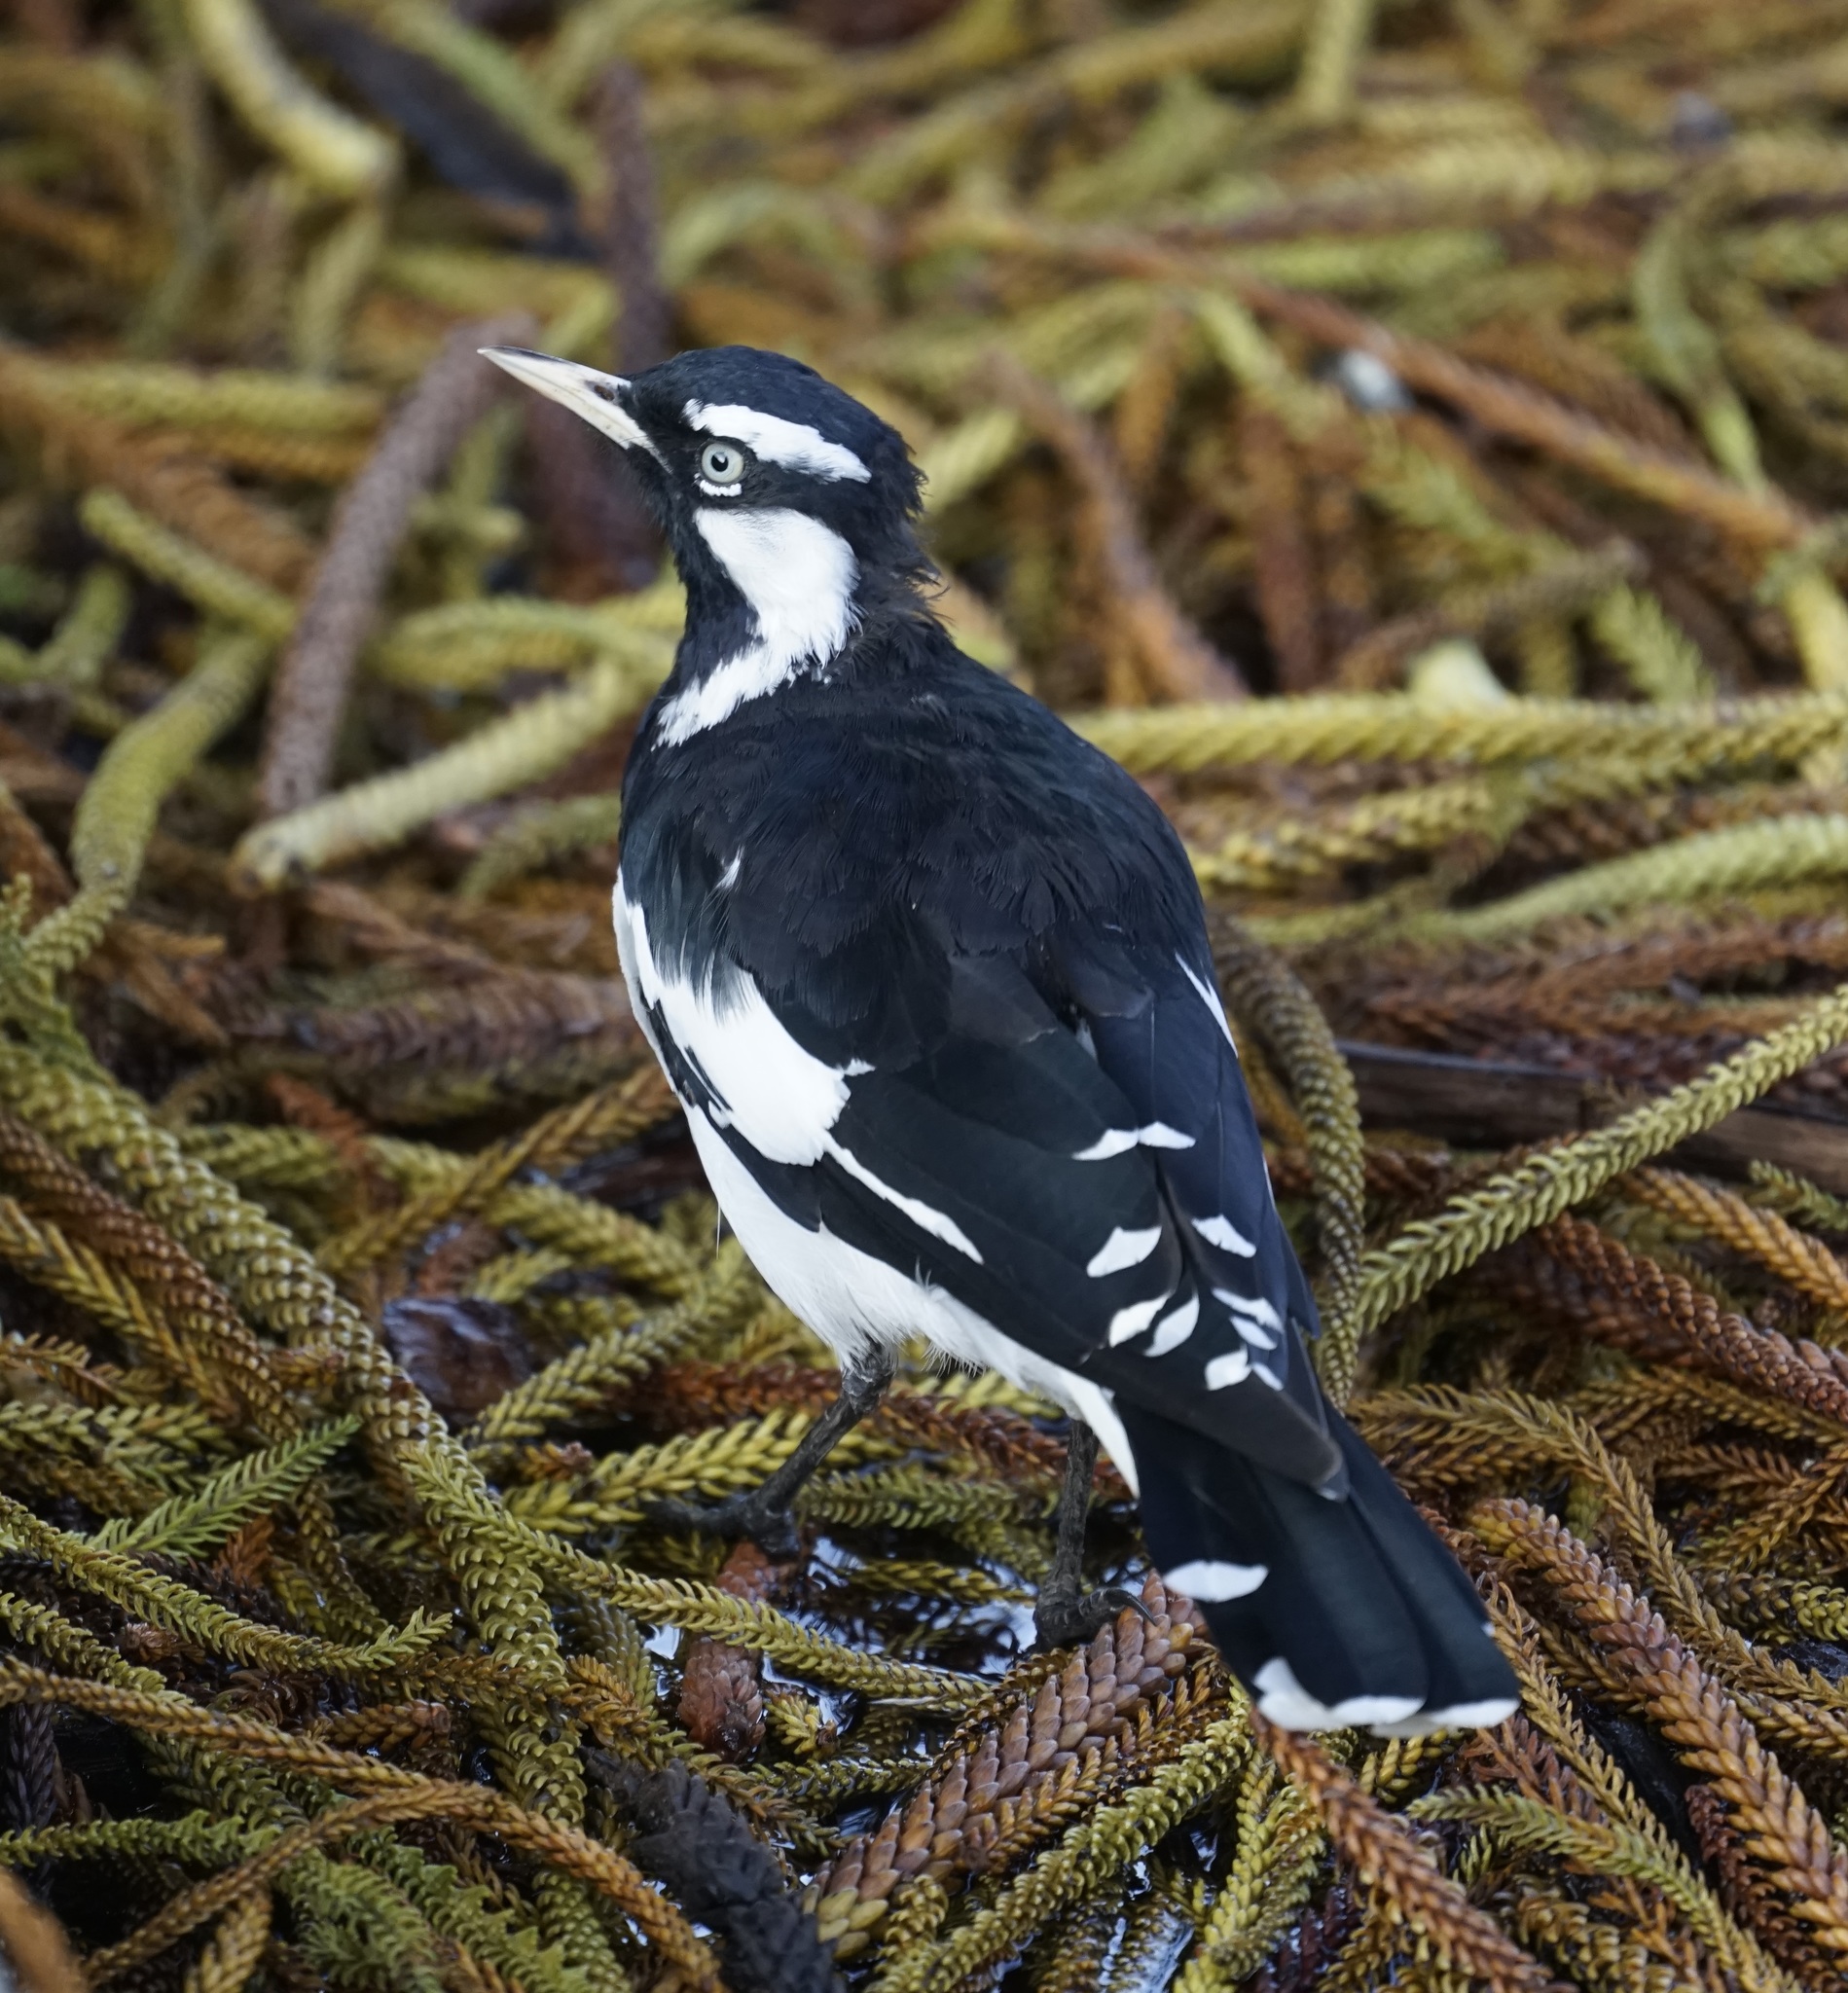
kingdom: Animalia
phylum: Chordata
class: Aves
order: Passeriformes
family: Monarchidae
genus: Grallina
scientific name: Grallina cyanoleuca
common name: Magpie-lark
